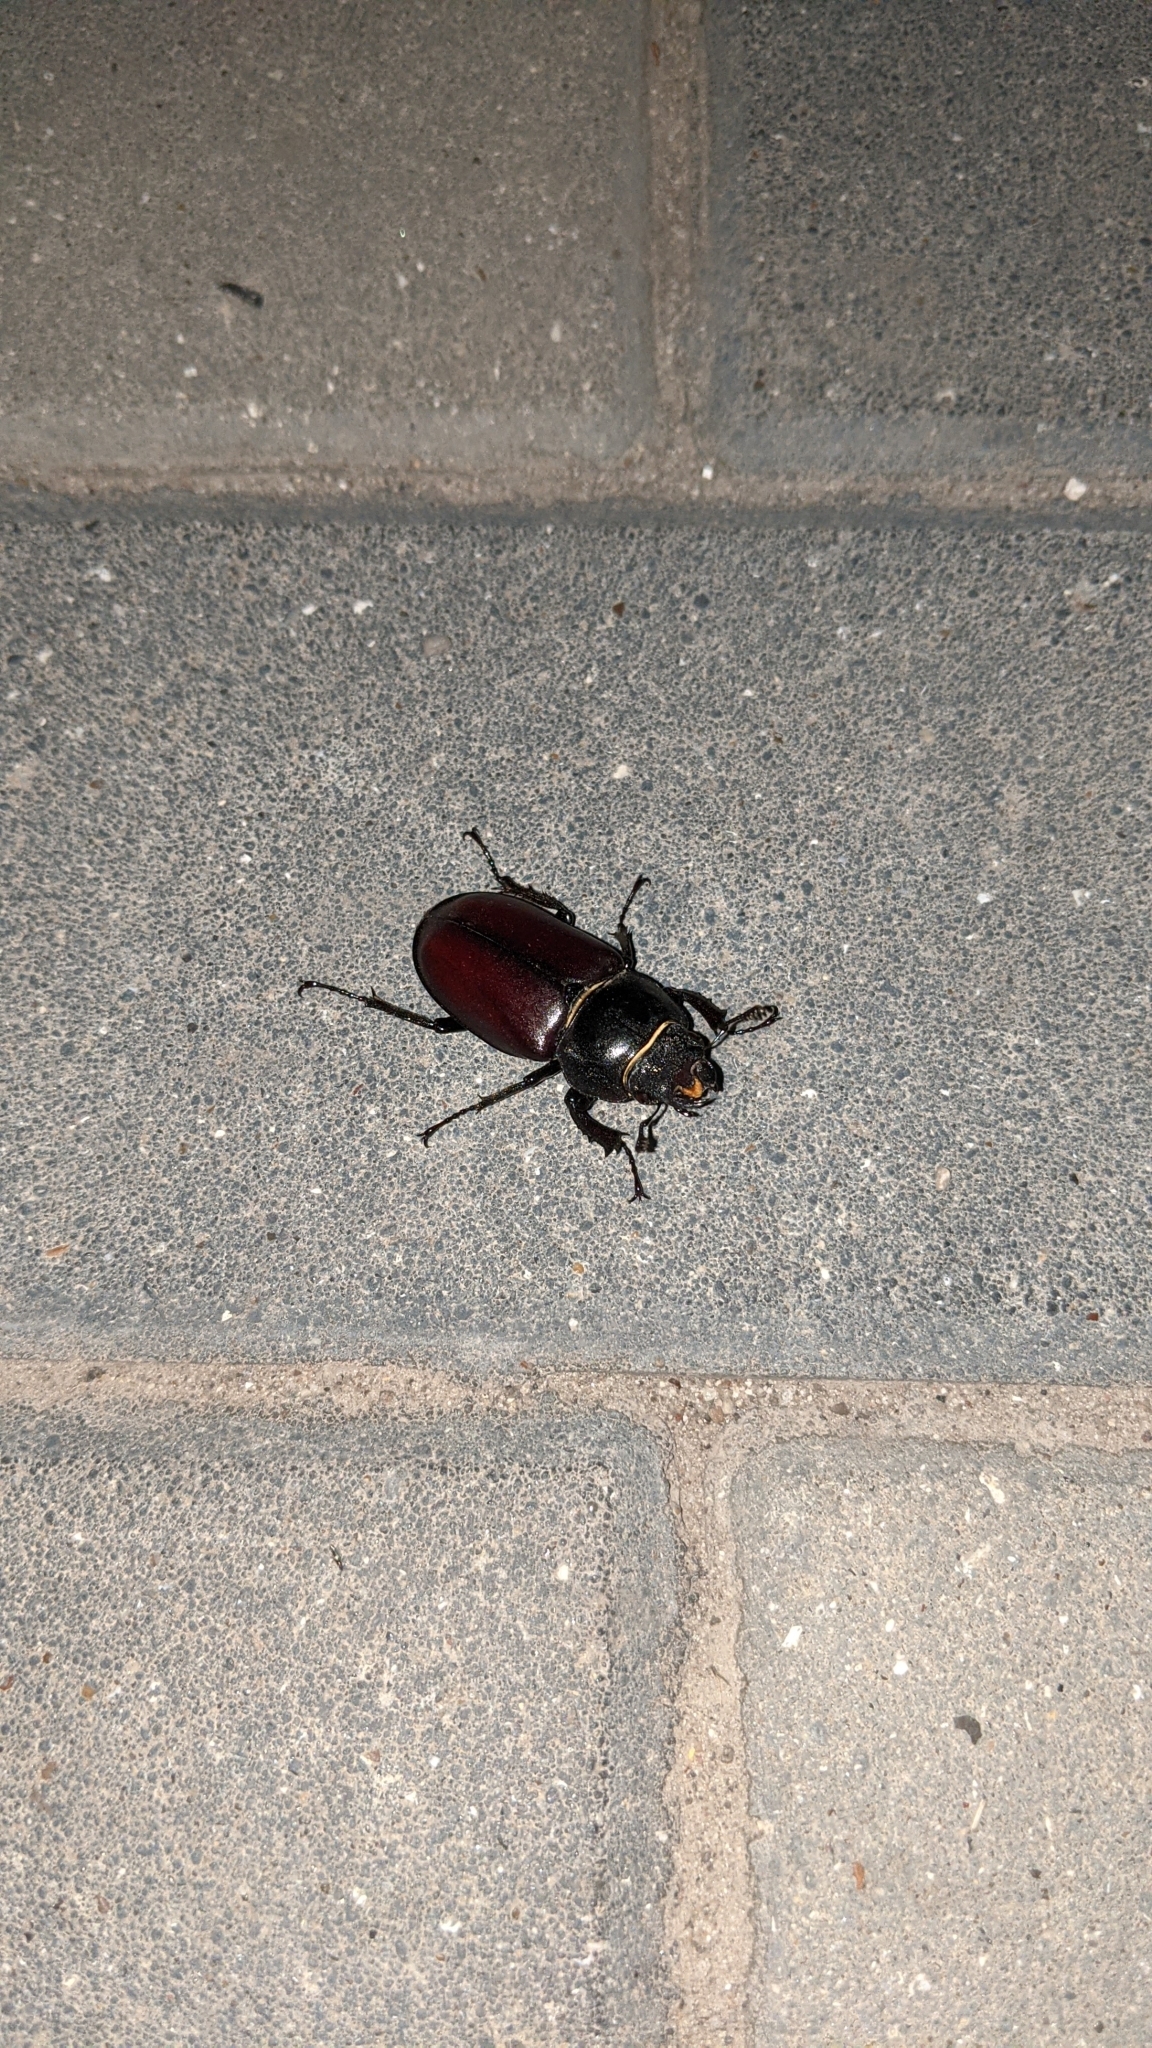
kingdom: Animalia
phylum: Arthropoda
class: Insecta
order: Coleoptera
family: Lucanidae
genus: Lucanus
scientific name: Lucanus cervus
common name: Stag beetle
